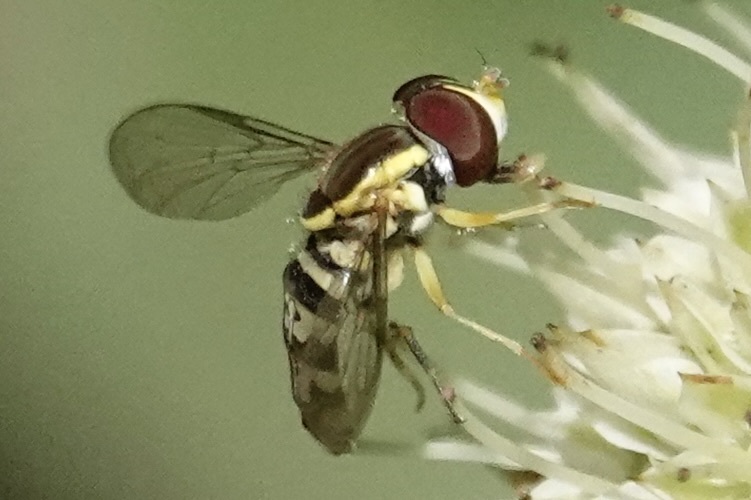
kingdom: Animalia
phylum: Arthropoda
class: Insecta
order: Diptera
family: Syrphidae
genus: Toxomerus
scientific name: Toxomerus geminatus
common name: Eastern calligrapher
